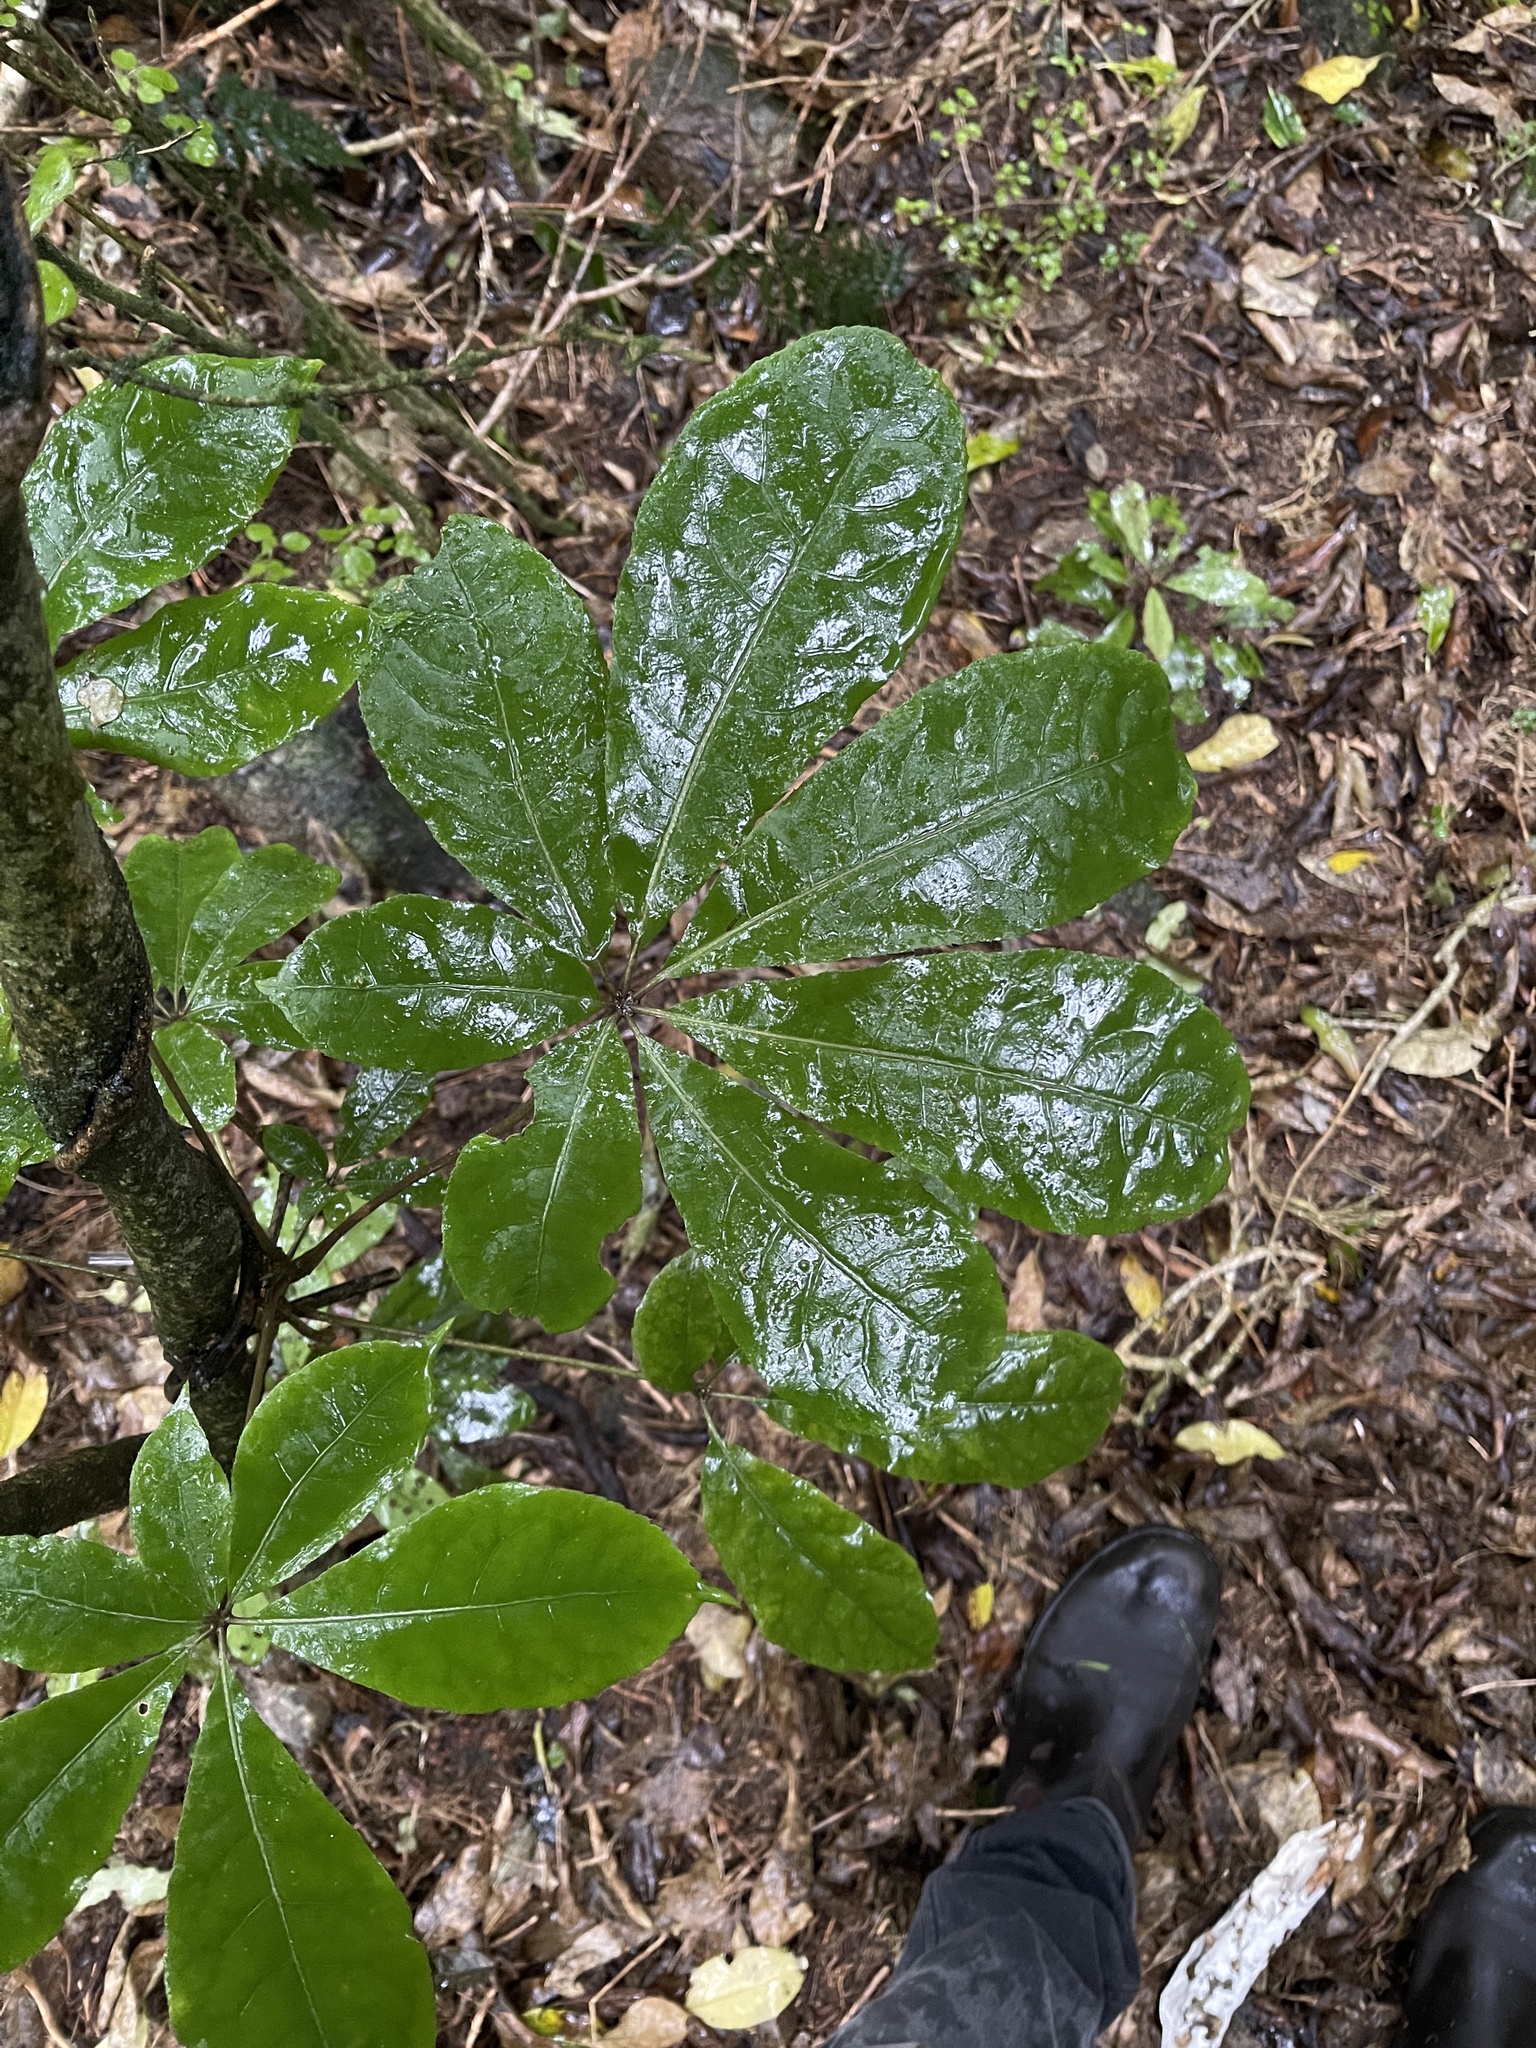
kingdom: Plantae
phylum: Tracheophyta
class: Magnoliopsida
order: Apiales
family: Araliaceae
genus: Schefflera
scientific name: Schefflera digitata
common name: Pate
